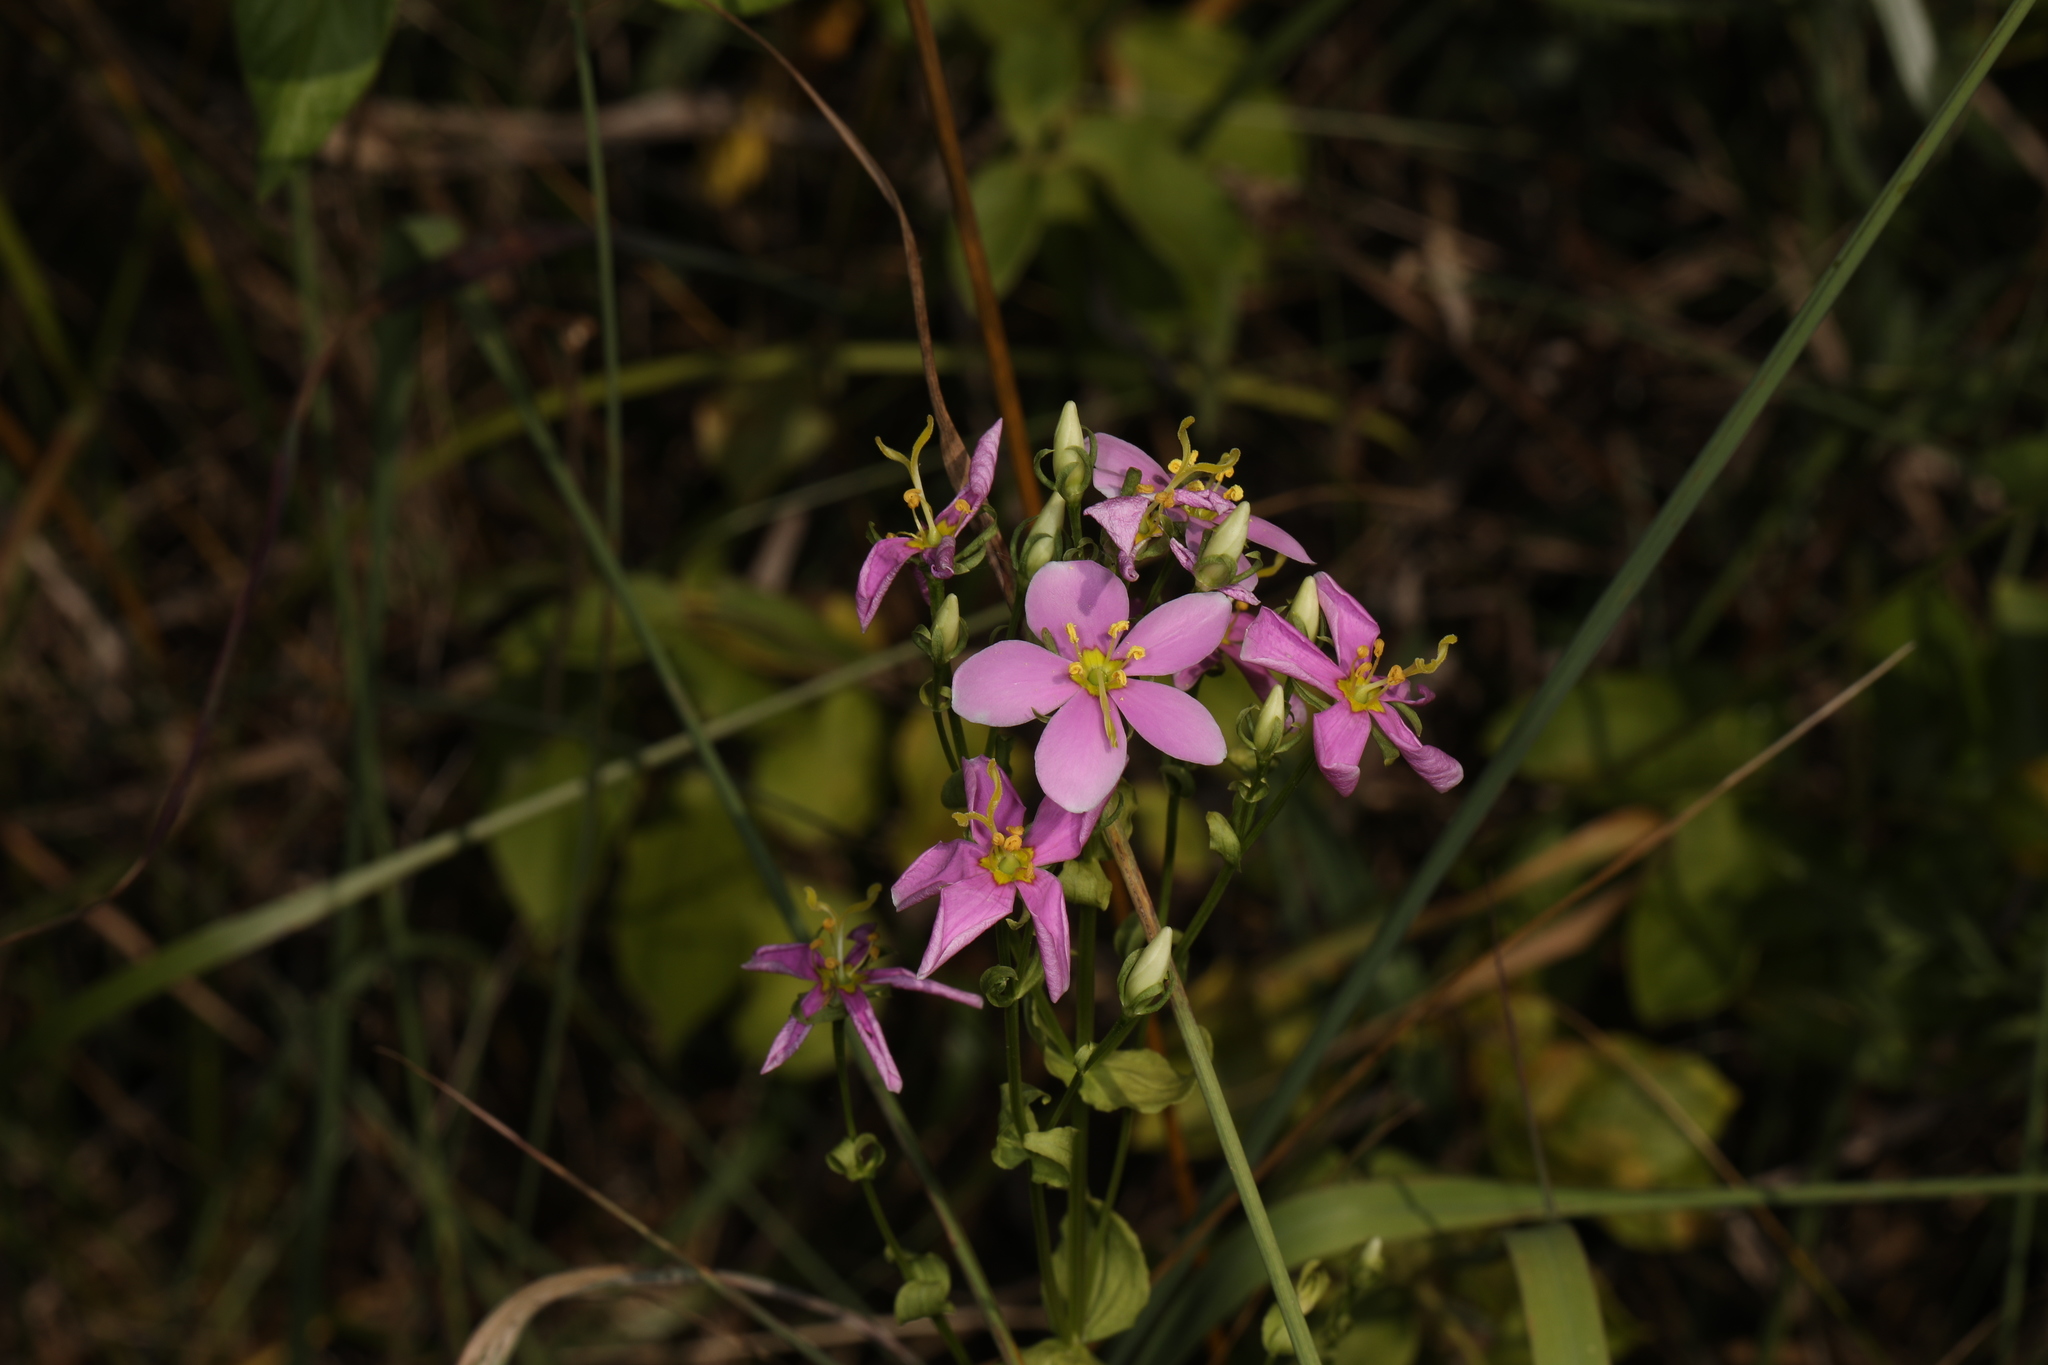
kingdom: Plantae
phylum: Tracheophyta
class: Magnoliopsida
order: Gentianales
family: Gentianaceae
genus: Sabatia
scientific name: Sabatia angularis
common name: Rose-pink
